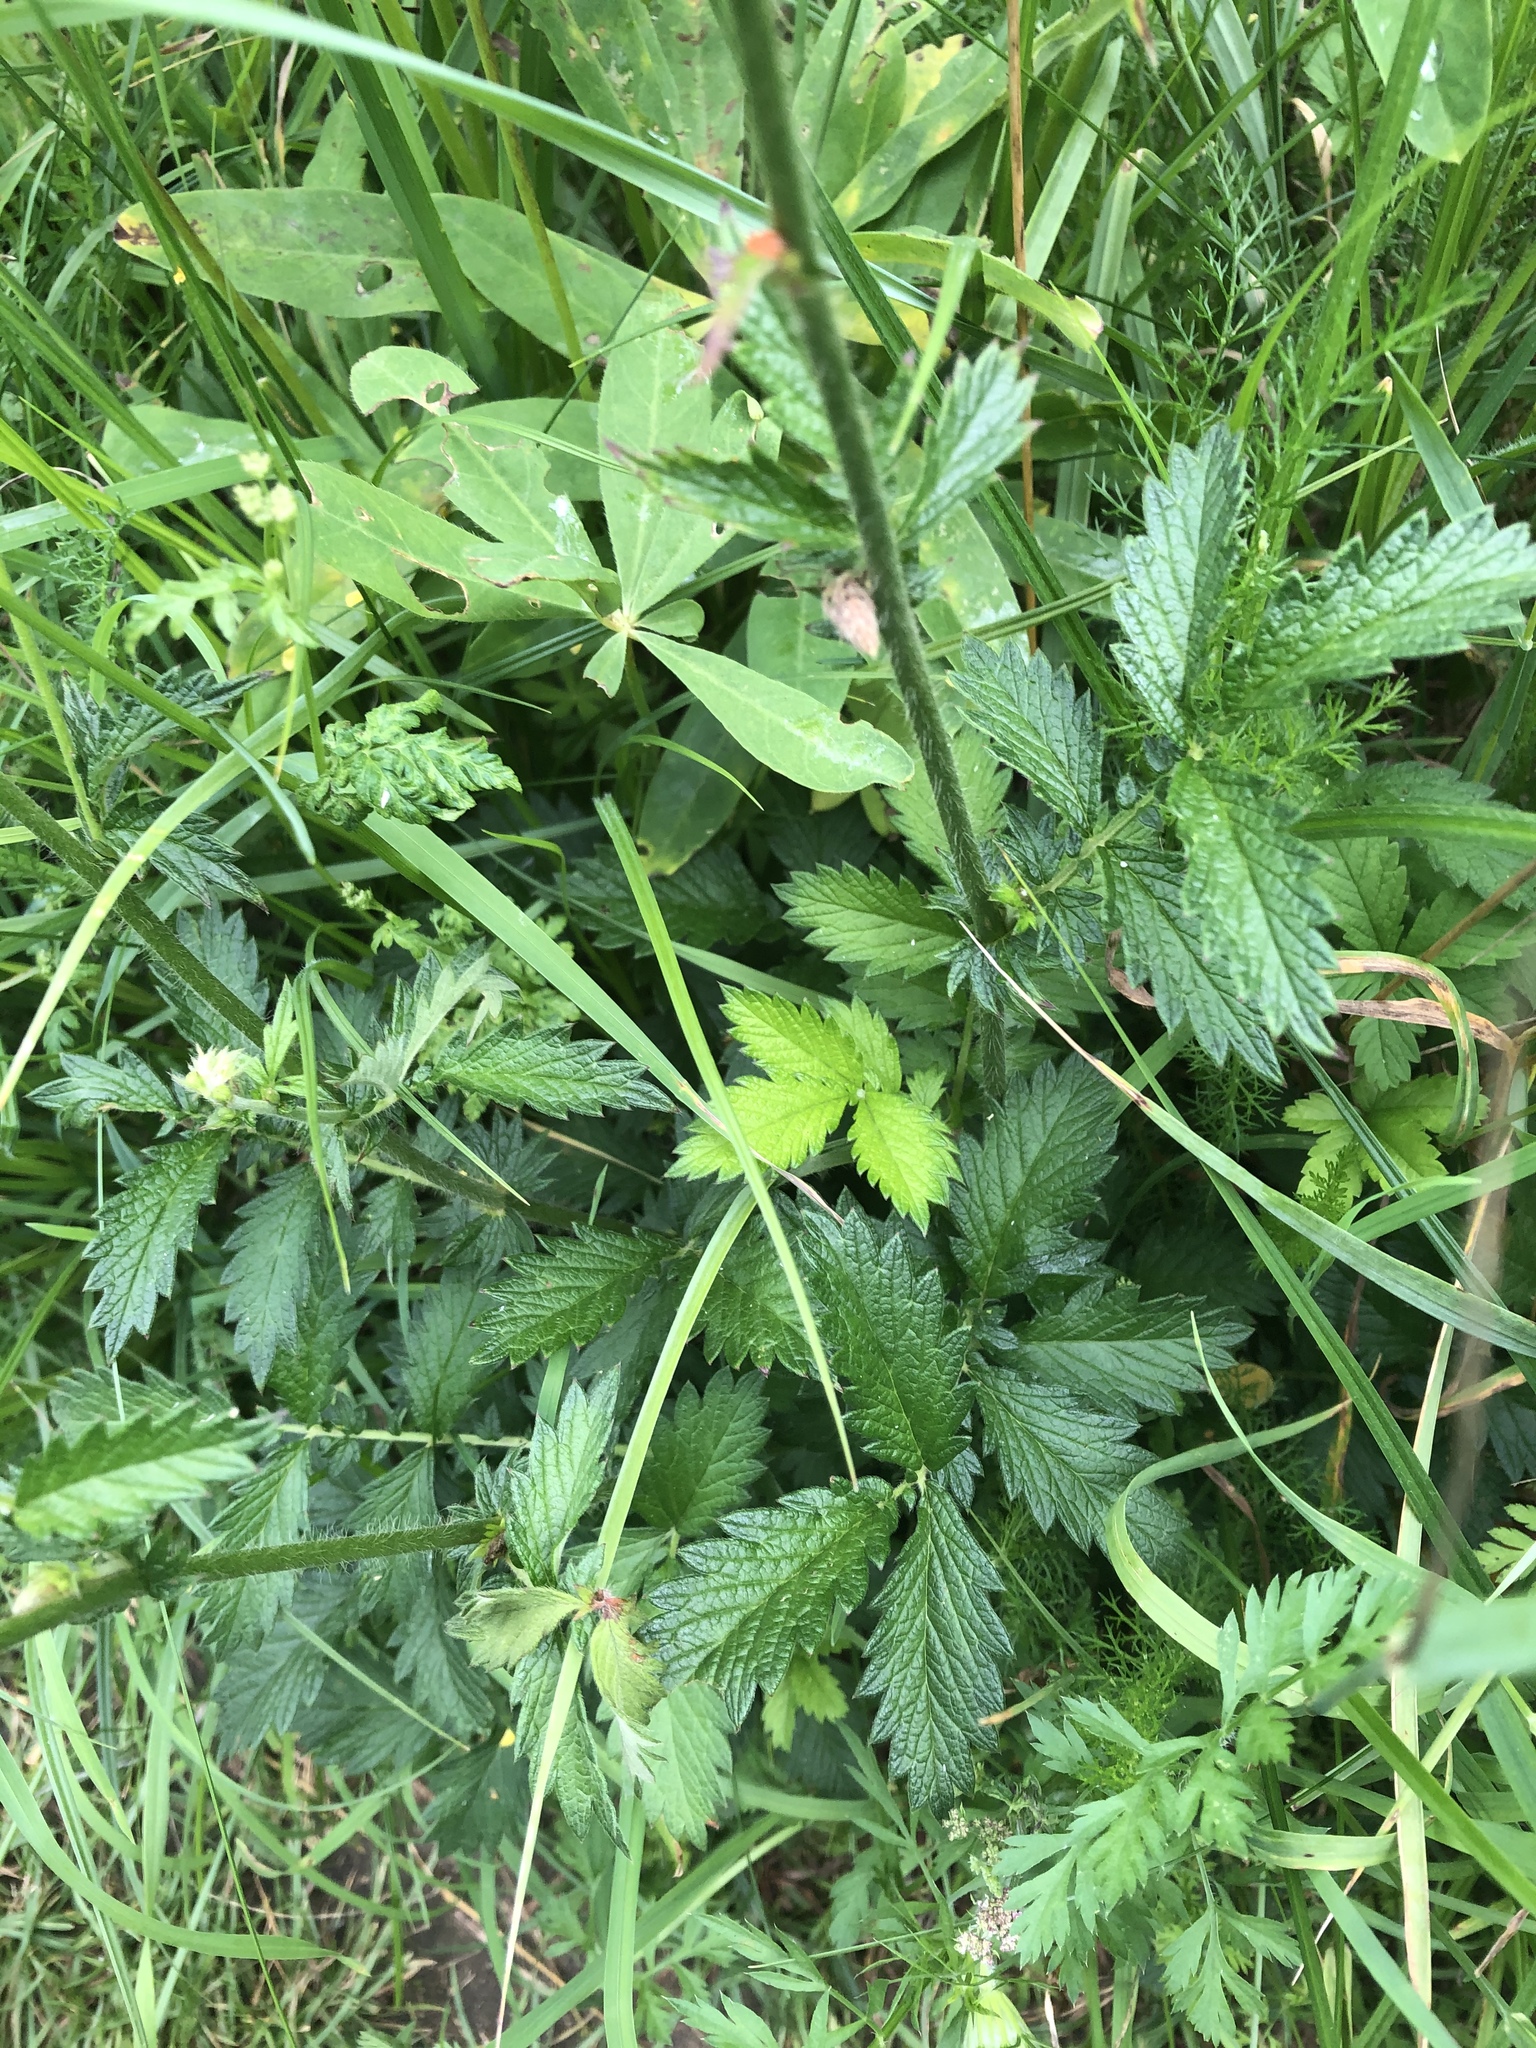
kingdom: Plantae
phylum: Tracheophyta
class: Magnoliopsida
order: Rosales
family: Rosaceae
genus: Agrimonia
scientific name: Agrimonia eupatoria
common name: Agrimony
